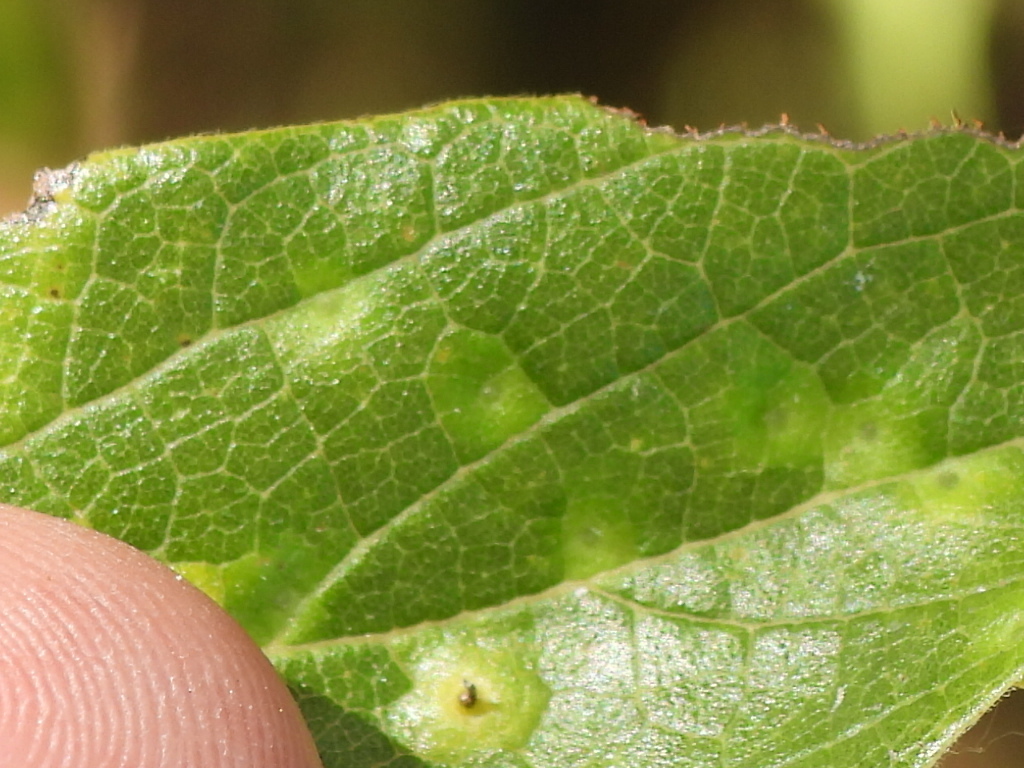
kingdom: Animalia
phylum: Arthropoda
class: Insecta
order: Diptera
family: Cecidomyiidae
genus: Celticecis
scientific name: Celticecis aciculata
